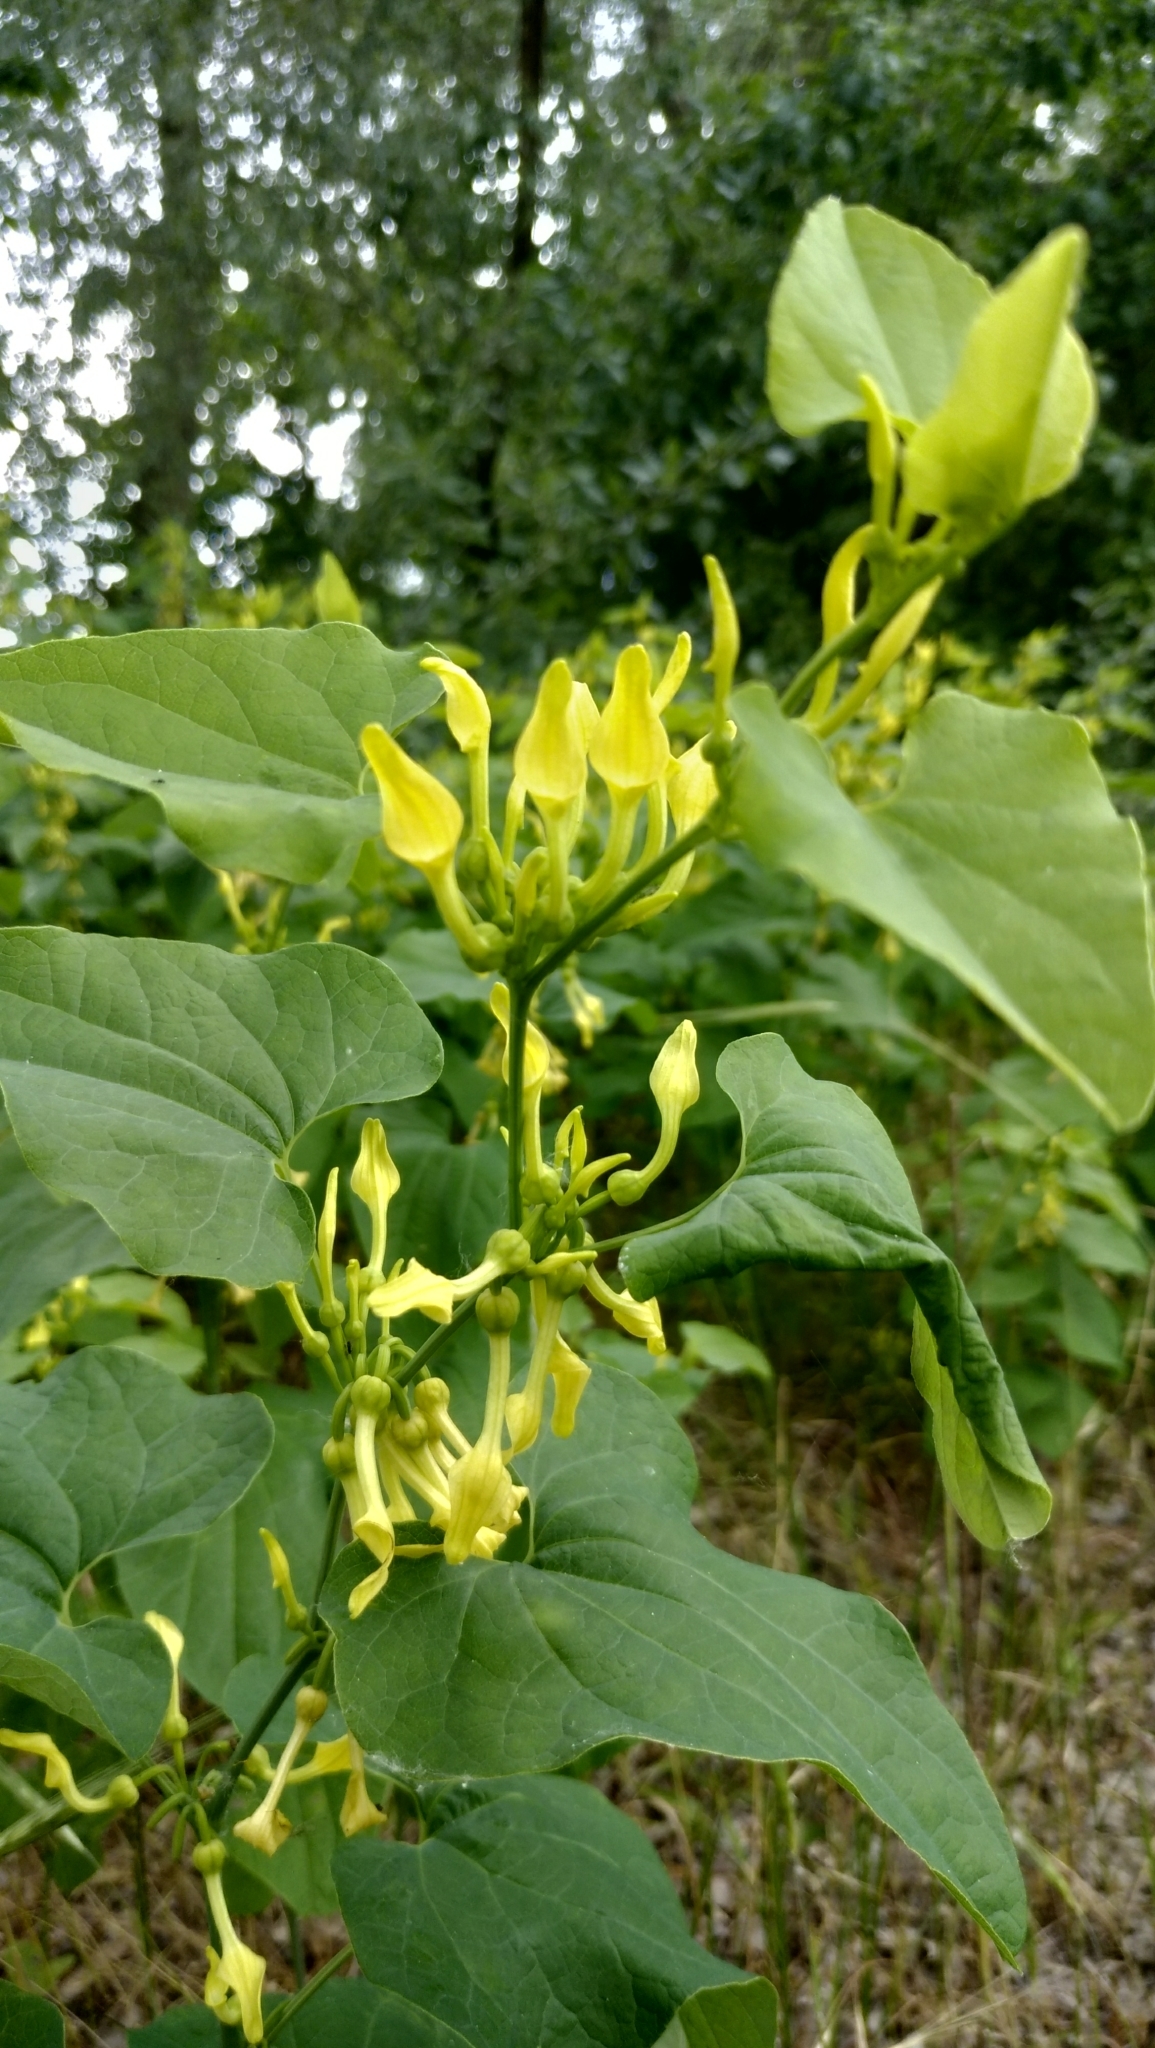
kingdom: Plantae
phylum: Tracheophyta
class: Magnoliopsida
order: Piperales
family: Aristolochiaceae
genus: Aristolochia
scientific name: Aristolochia clematitis
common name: Birthwort
